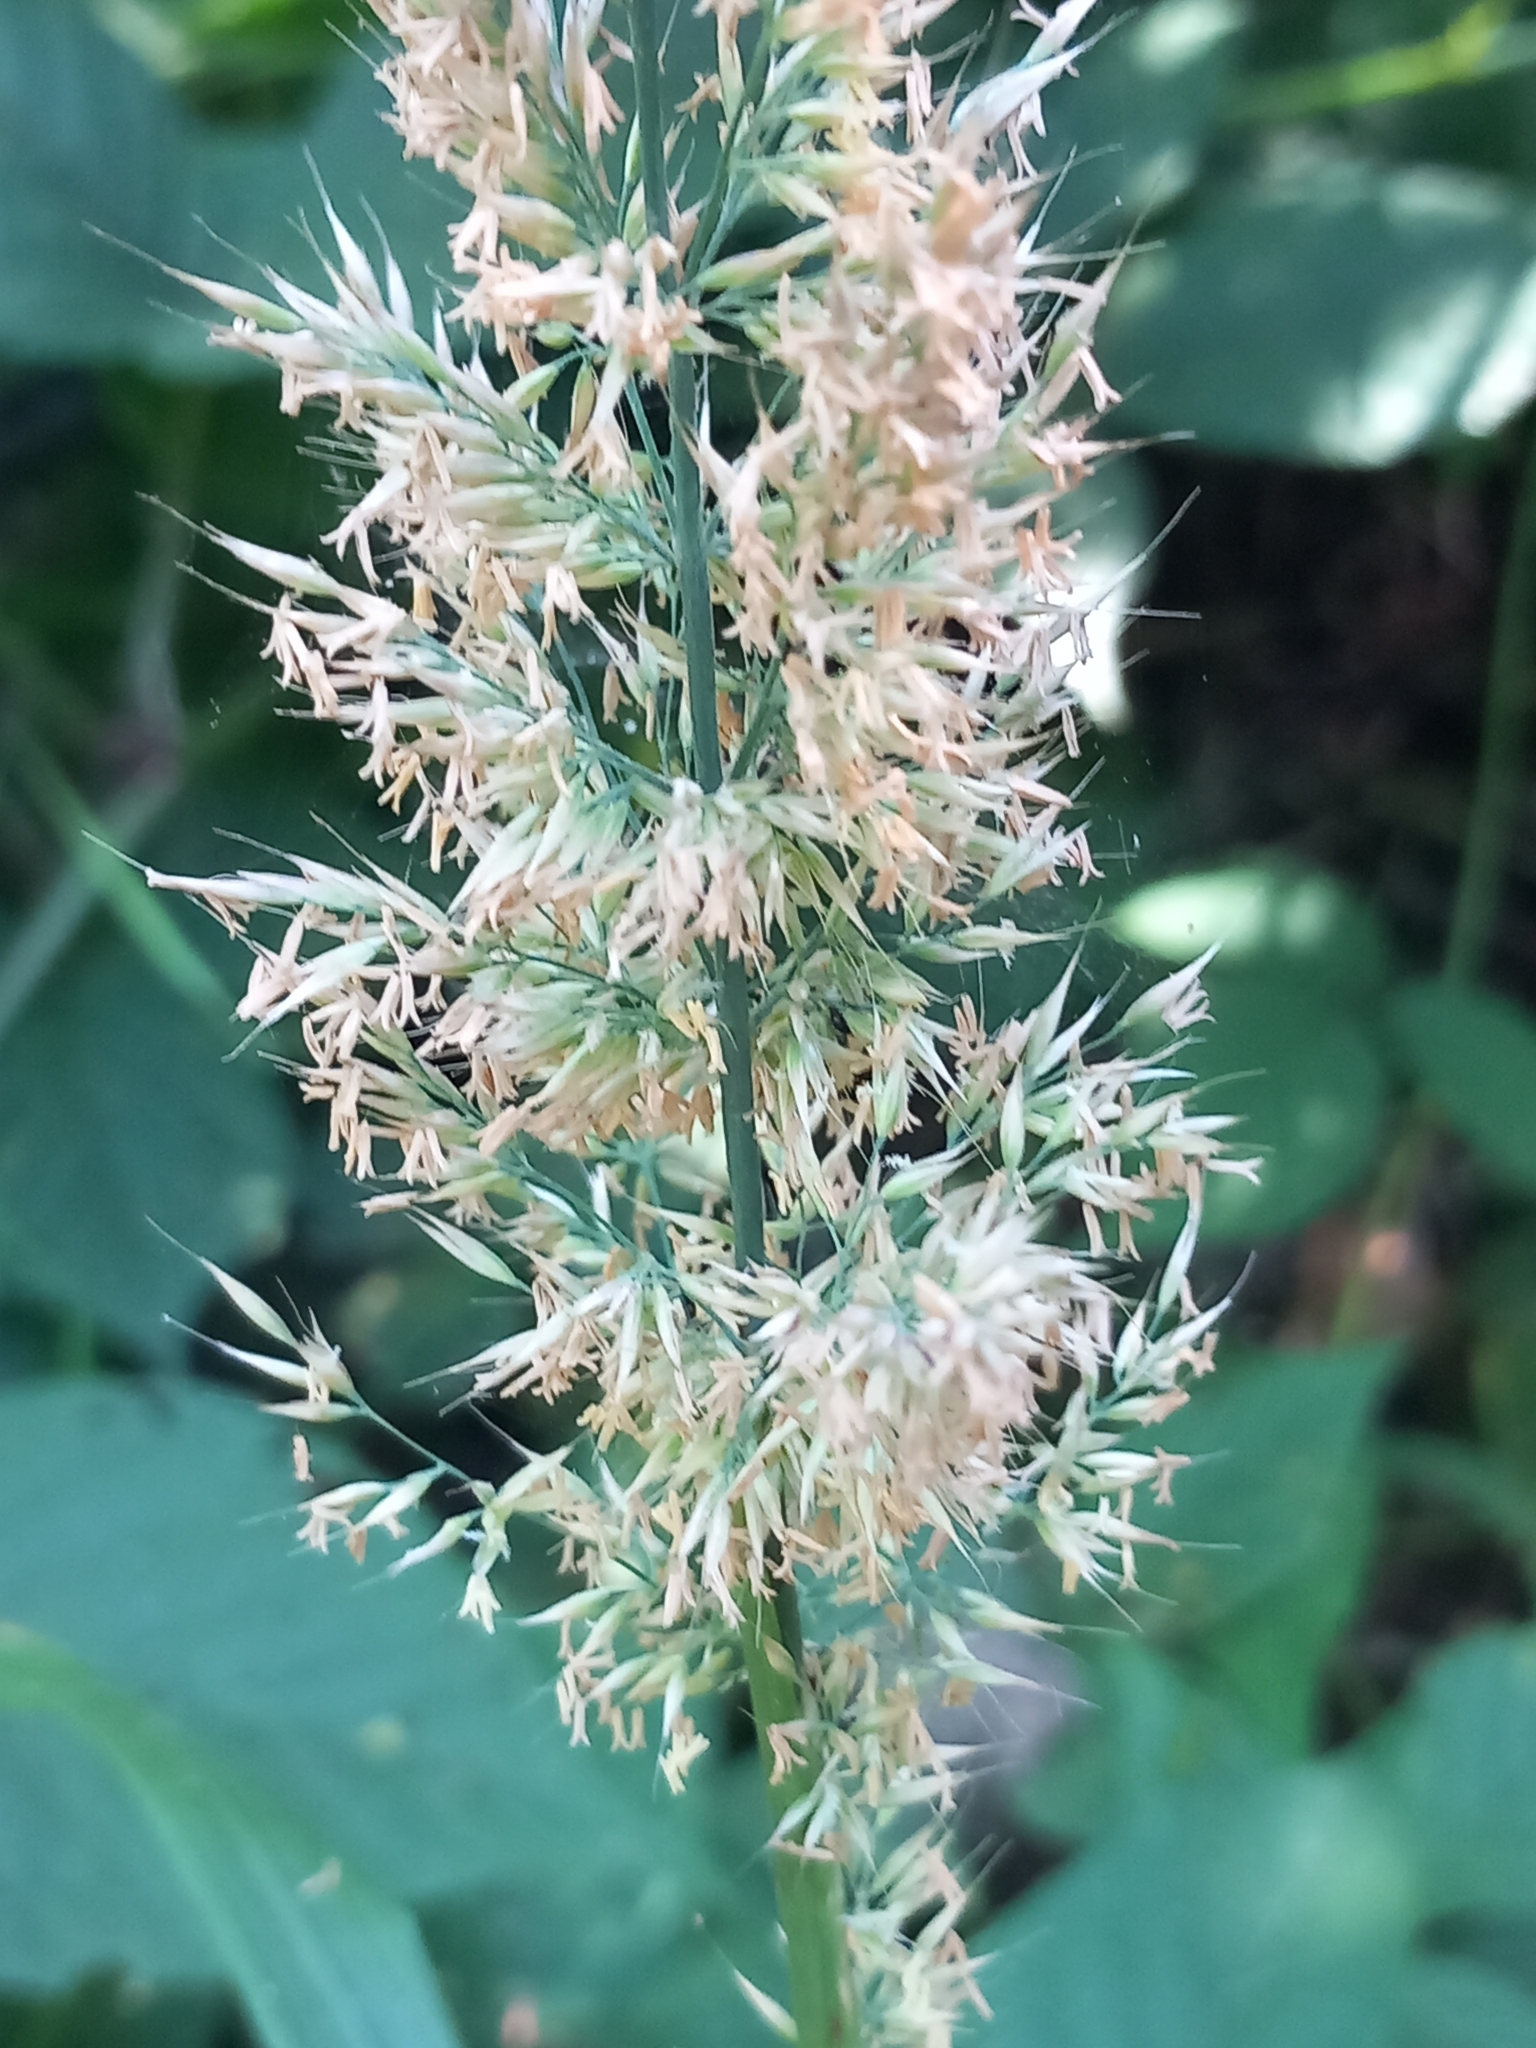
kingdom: Plantae
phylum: Tracheophyta
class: Liliopsida
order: Poales
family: Poaceae
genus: Calamagrostis
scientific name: Calamagrostis epigejos
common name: Wood small-reed
